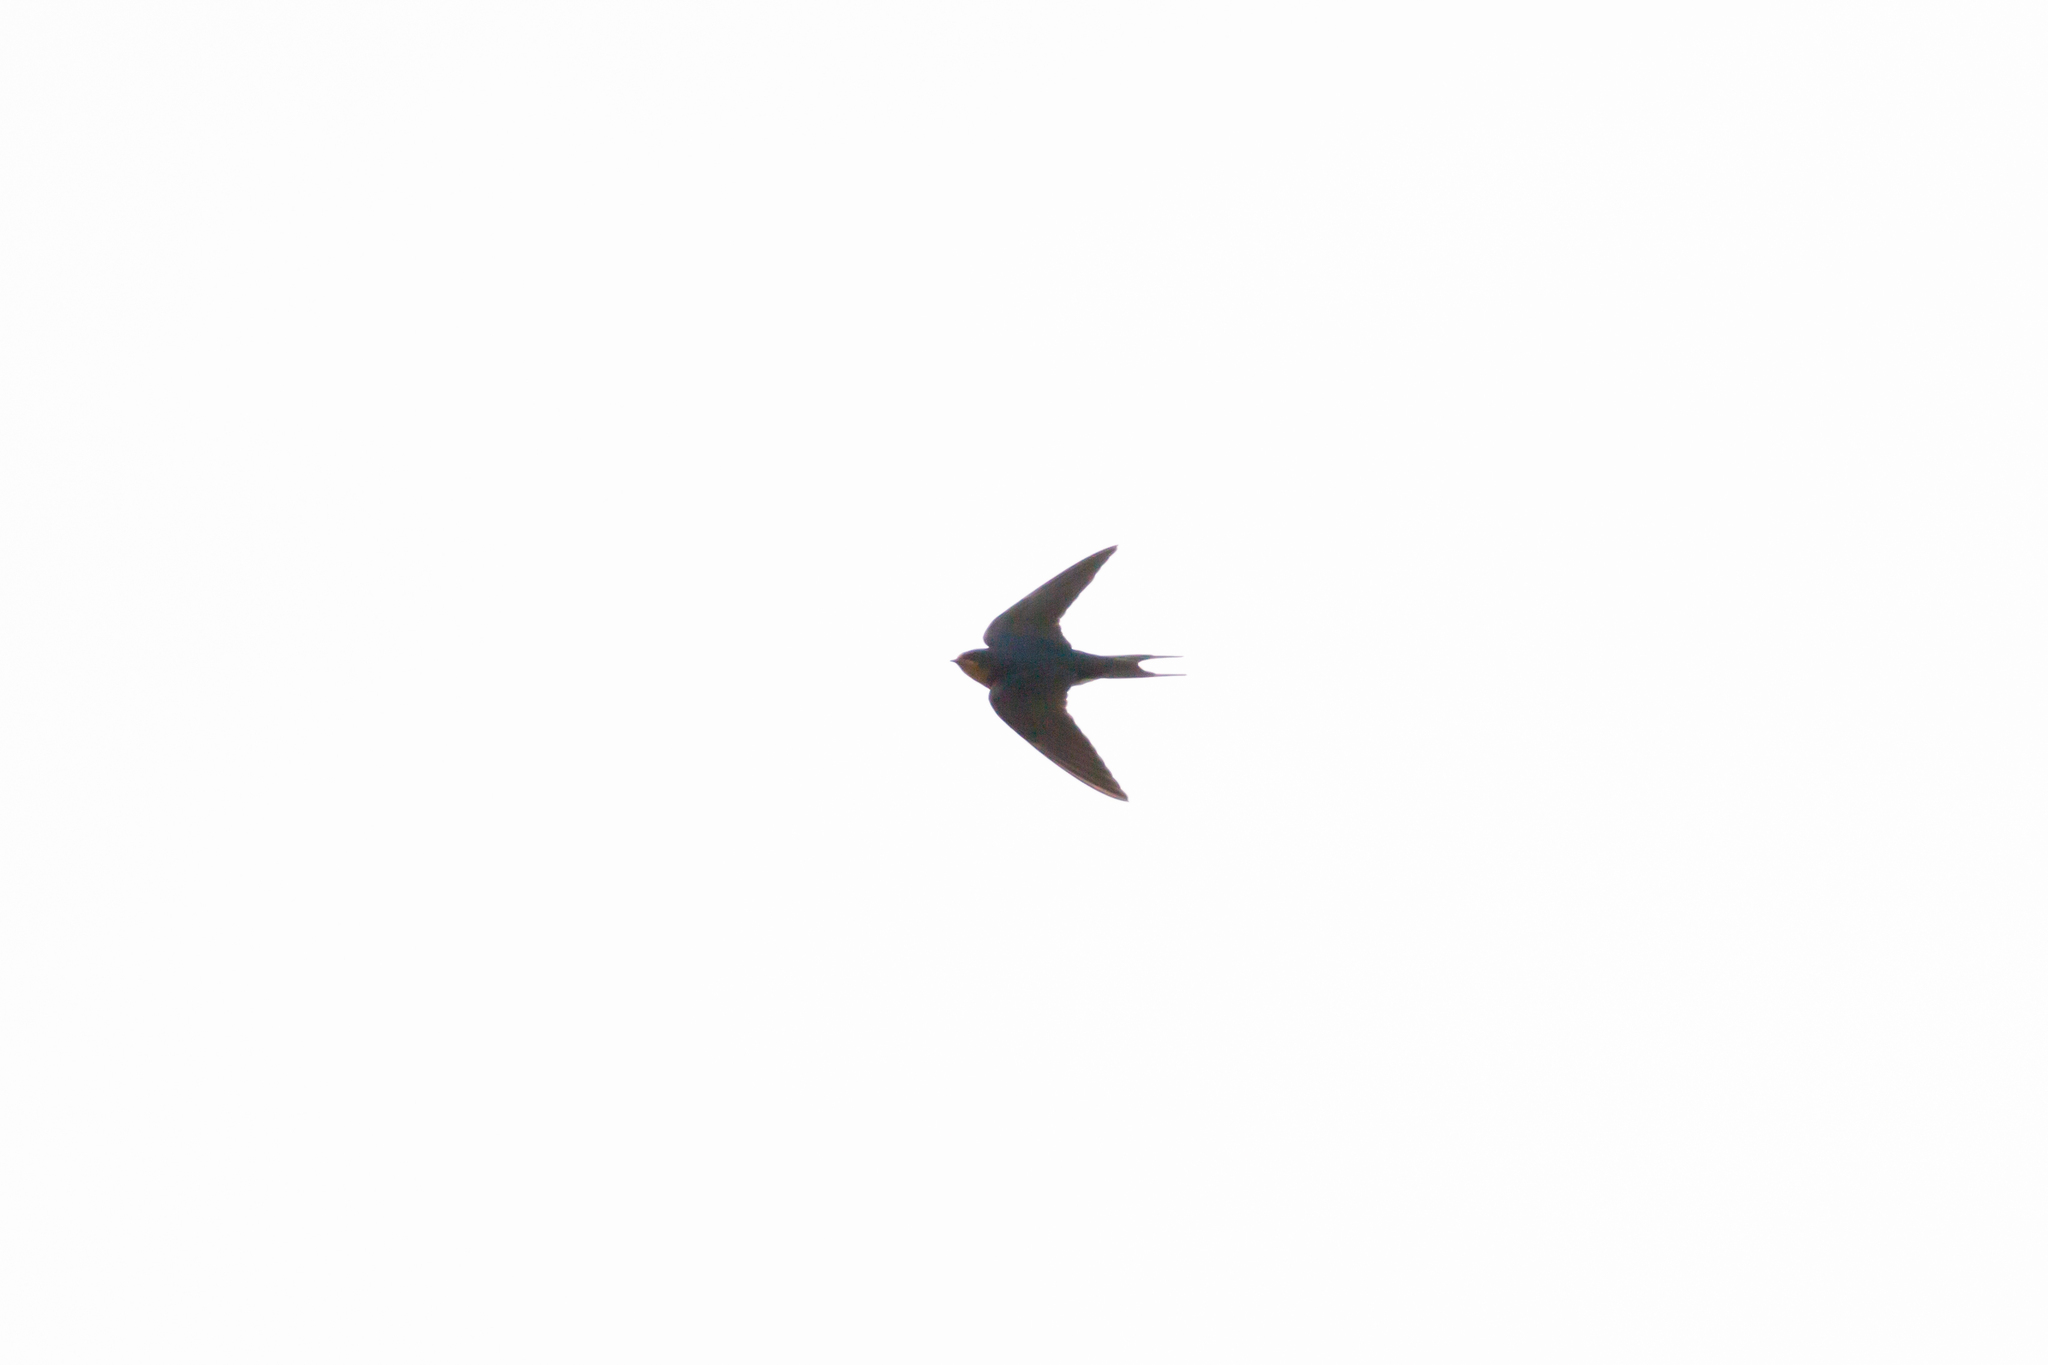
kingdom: Animalia
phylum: Chordata
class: Aves
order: Passeriformes
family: Hirundinidae
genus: Hirundo
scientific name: Hirundo rustica
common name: Barn swallow
